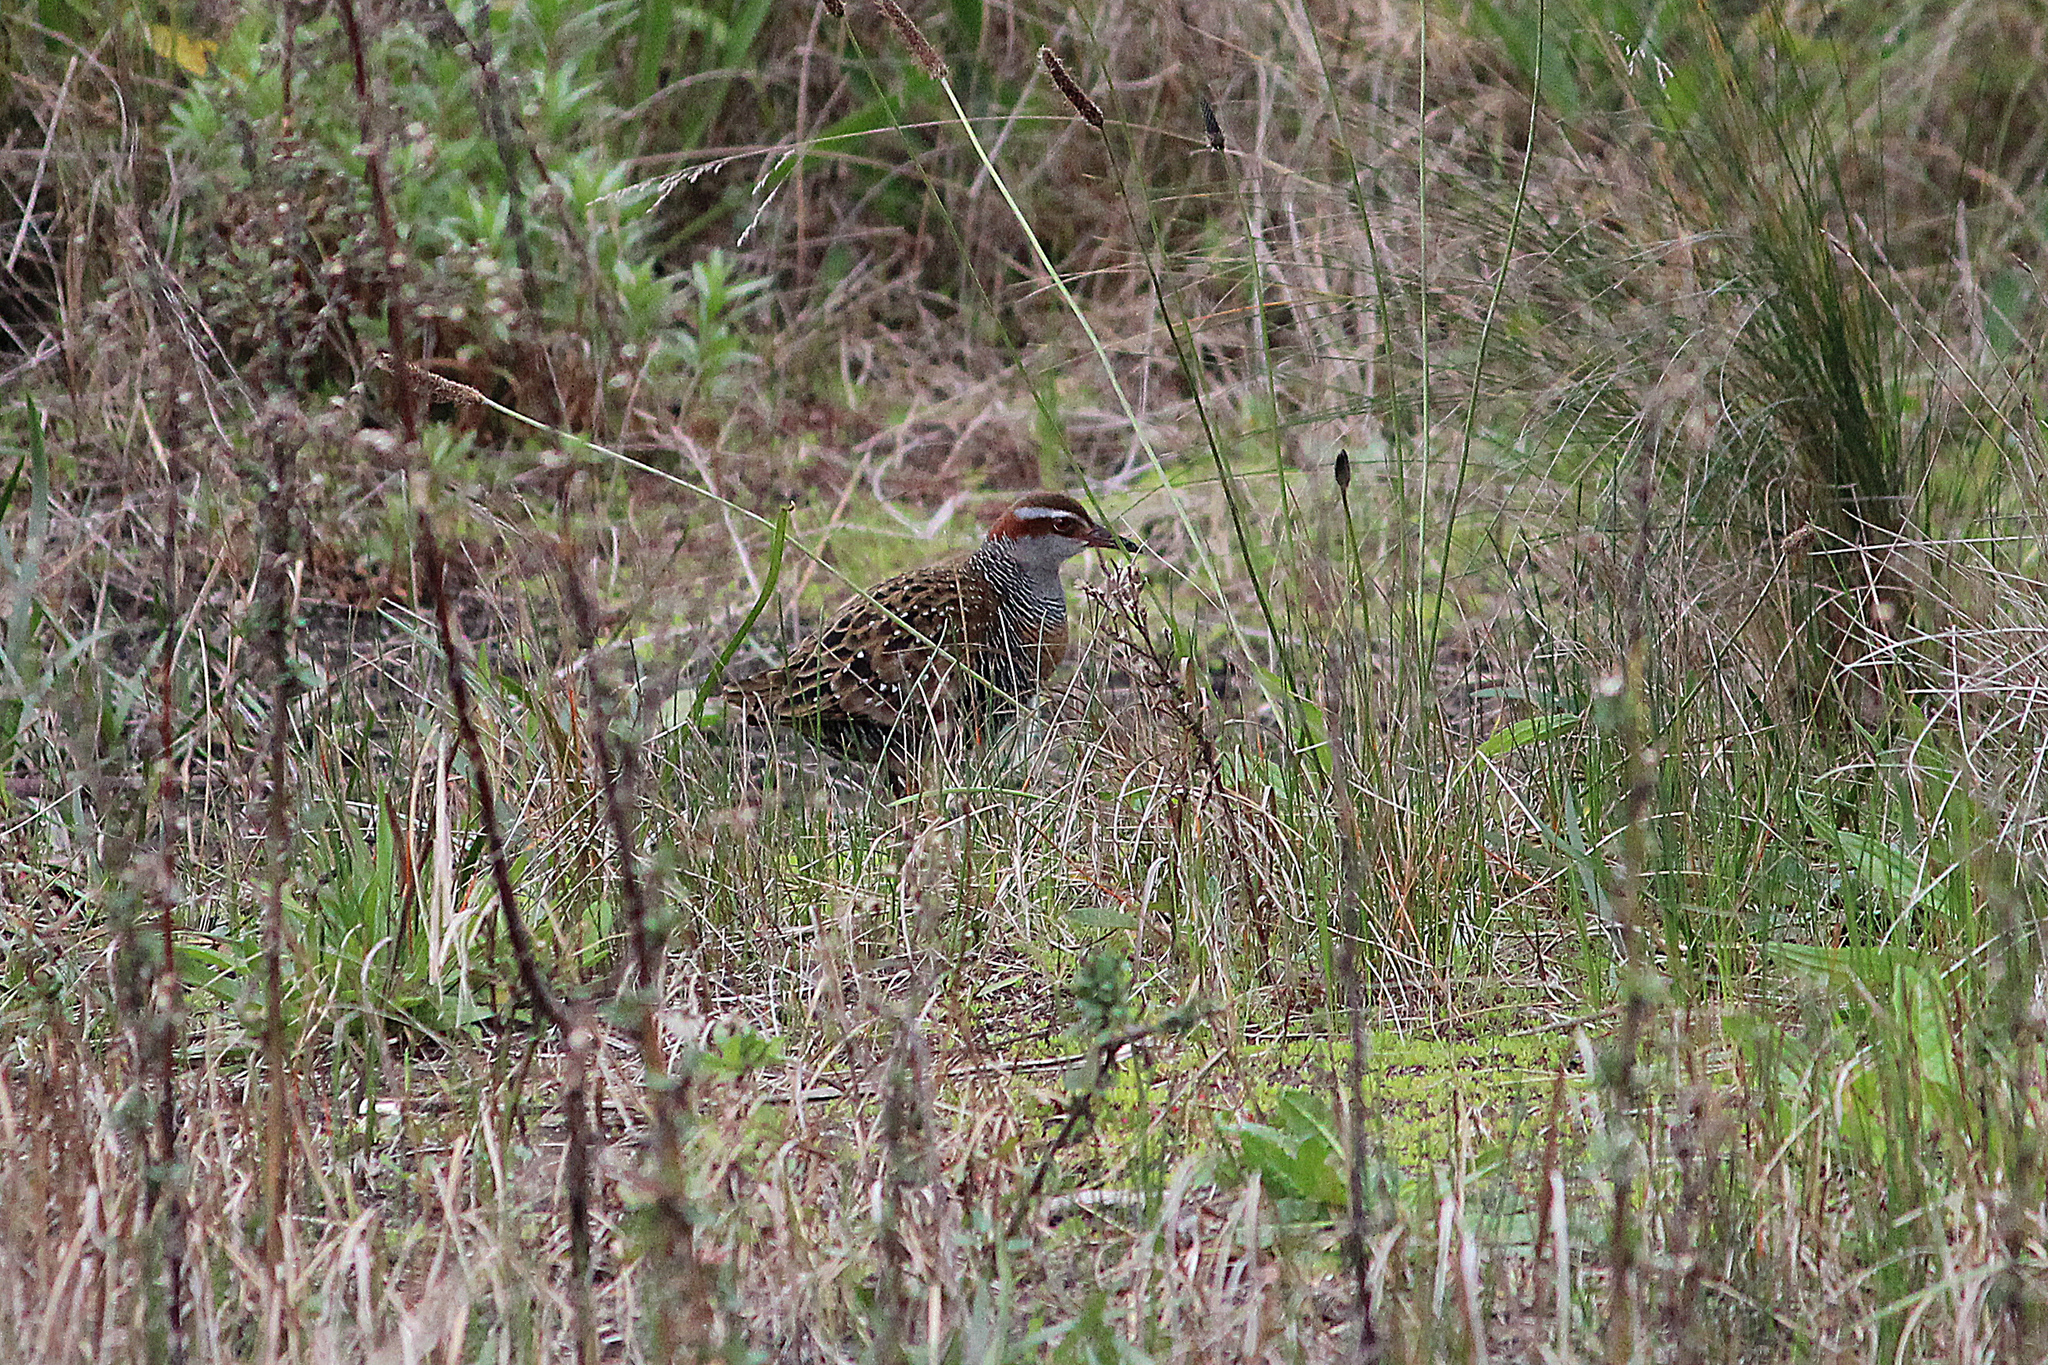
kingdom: Animalia
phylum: Chordata
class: Aves
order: Gruiformes
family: Rallidae
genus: Gallirallus
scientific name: Gallirallus philippensis
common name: Buff-banded rail
